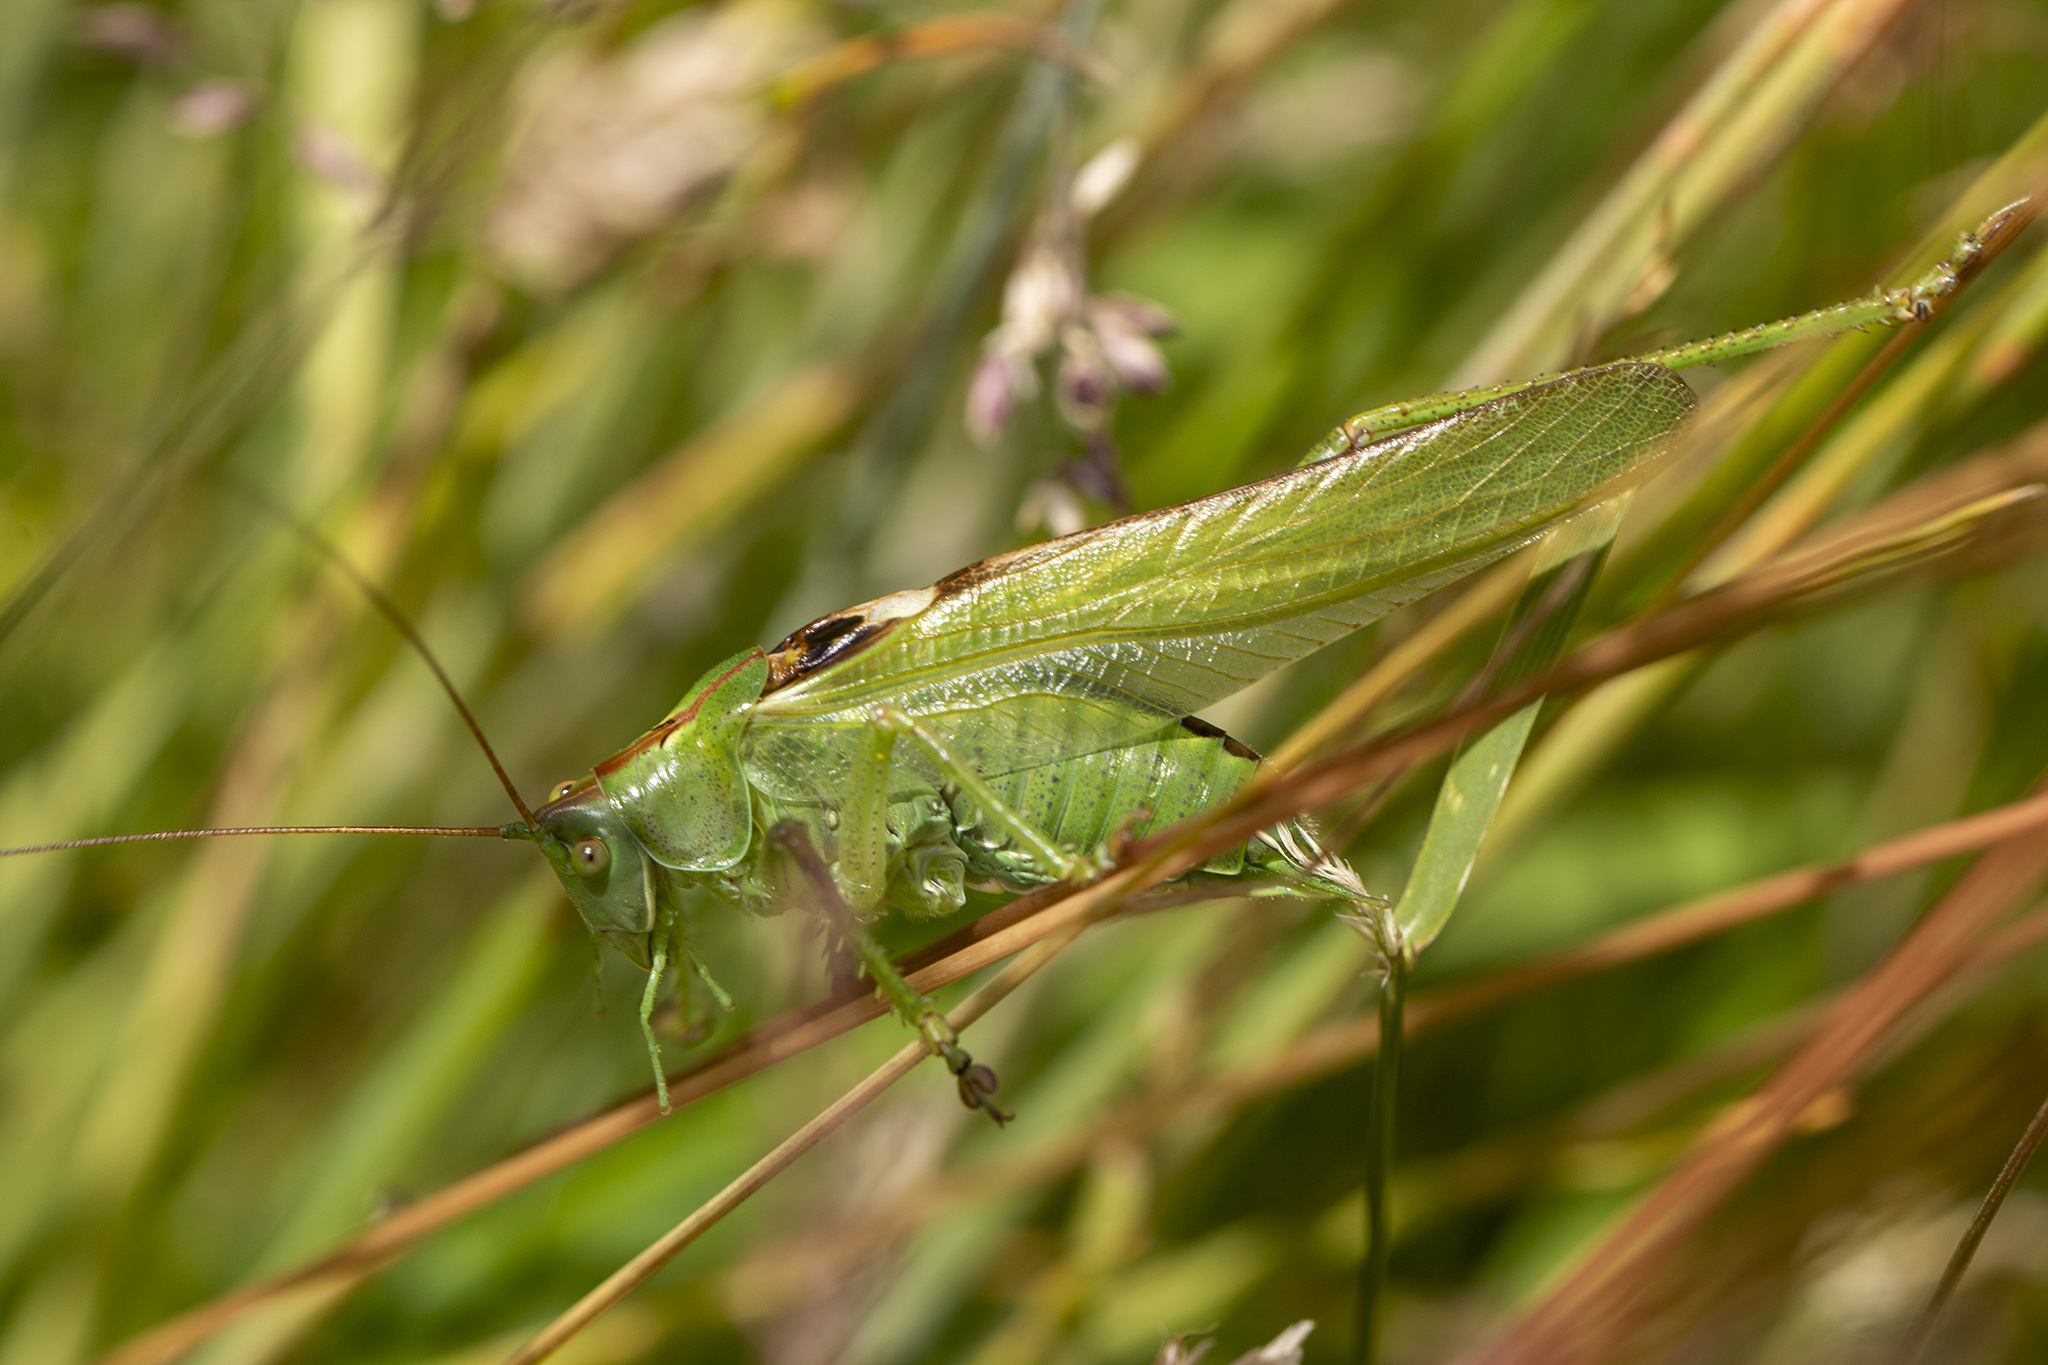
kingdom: Animalia
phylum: Arthropoda
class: Insecta
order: Orthoptera
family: Tettigoniidae
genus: Tettigonia
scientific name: Tettigonia viridissima
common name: Great green bush-cricket
